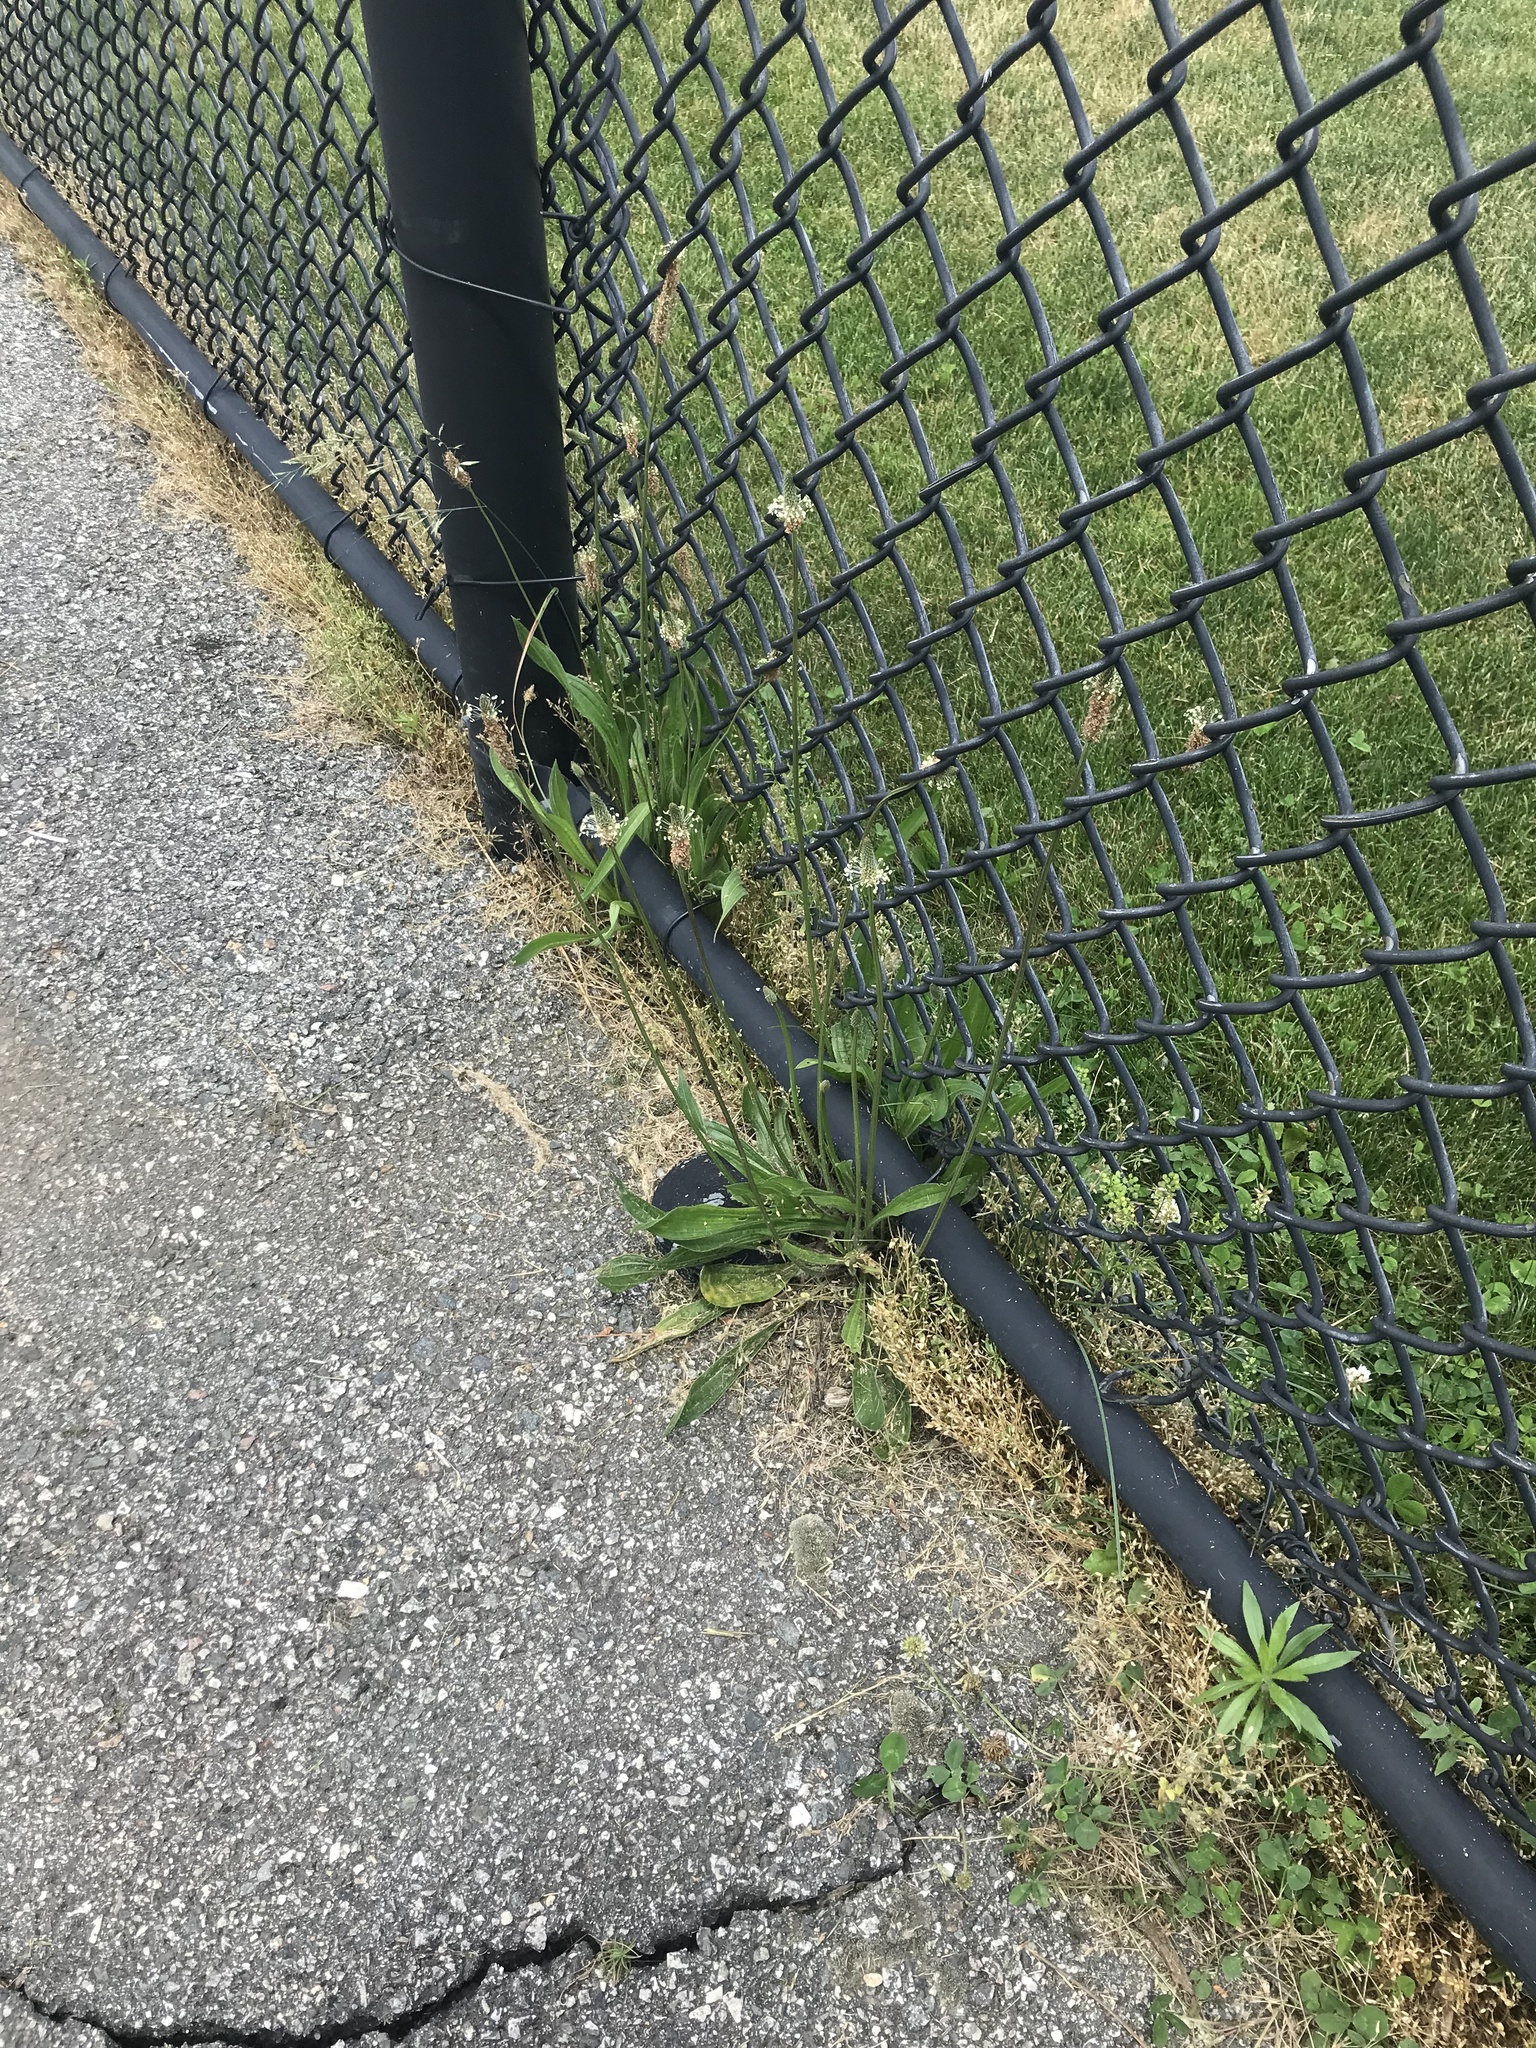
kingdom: Plantae
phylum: Tracheophyta
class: Magnoliopsida
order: Lamiales
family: Plantaginaceae
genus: Plantago
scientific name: Plantago lanceolata
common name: Ribwort plantain
